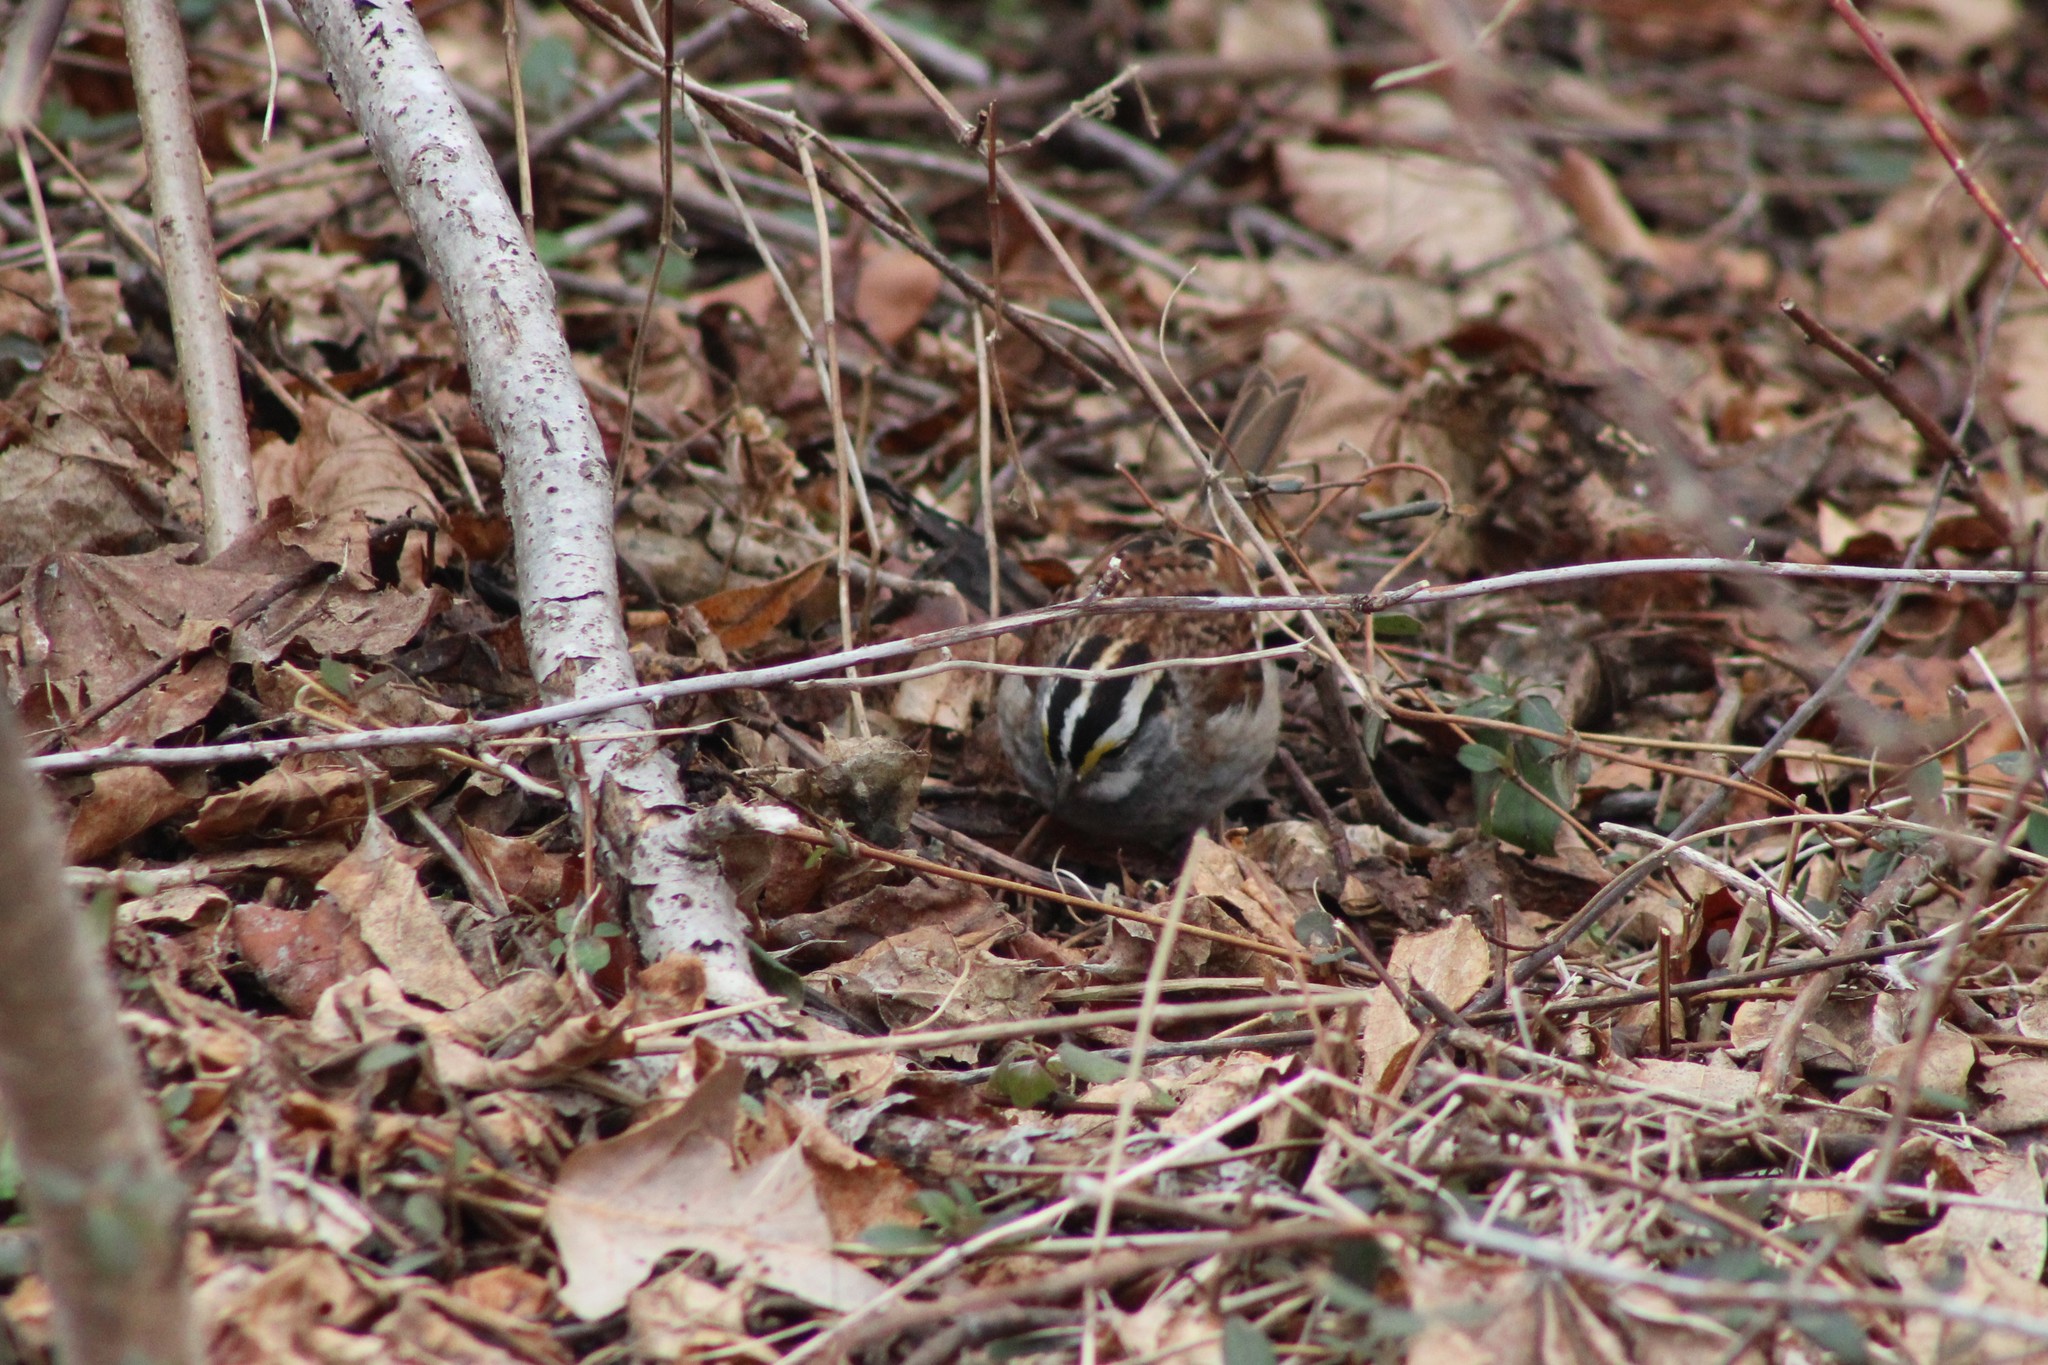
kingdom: Animalia
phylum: Chordata
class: Aves
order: Passeriformes
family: Passerellidae
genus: Zonotrichia
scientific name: Zonotrichia albicollis
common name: White-throated sparrow
